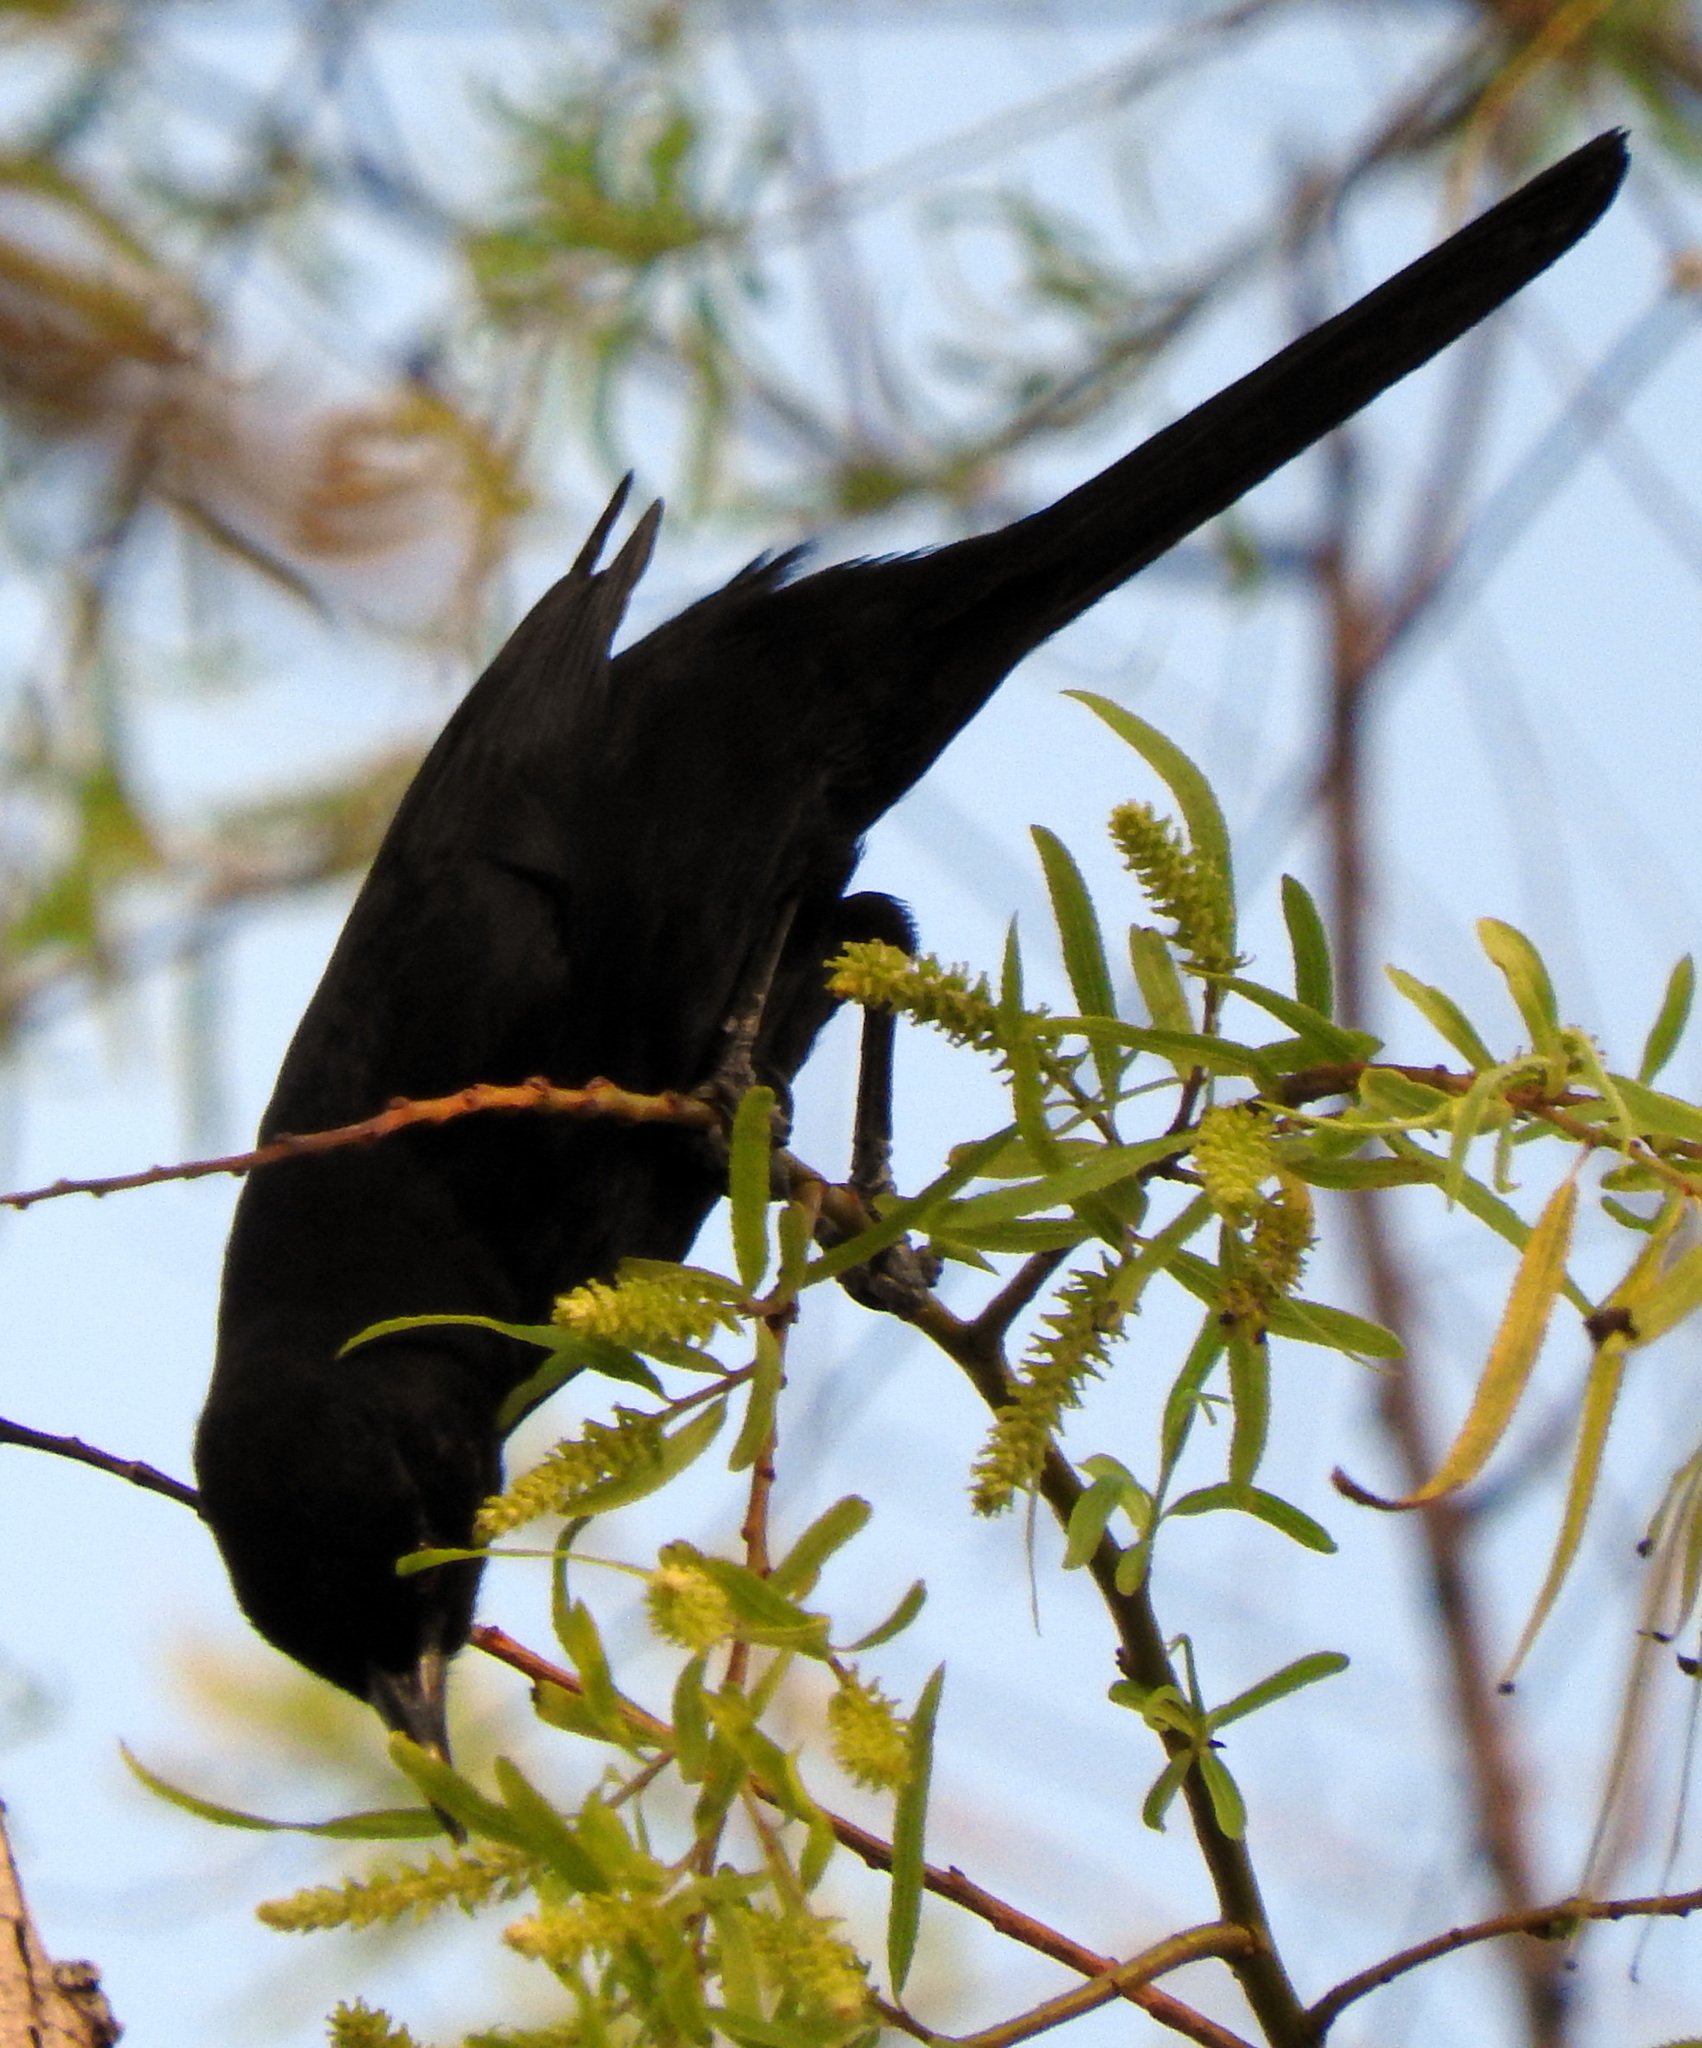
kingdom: Animalia
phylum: Chordata
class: Aves
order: Passeriformes
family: Icteridae
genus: Icterus
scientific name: Icterus cayanensis
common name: Epaulet oriole
